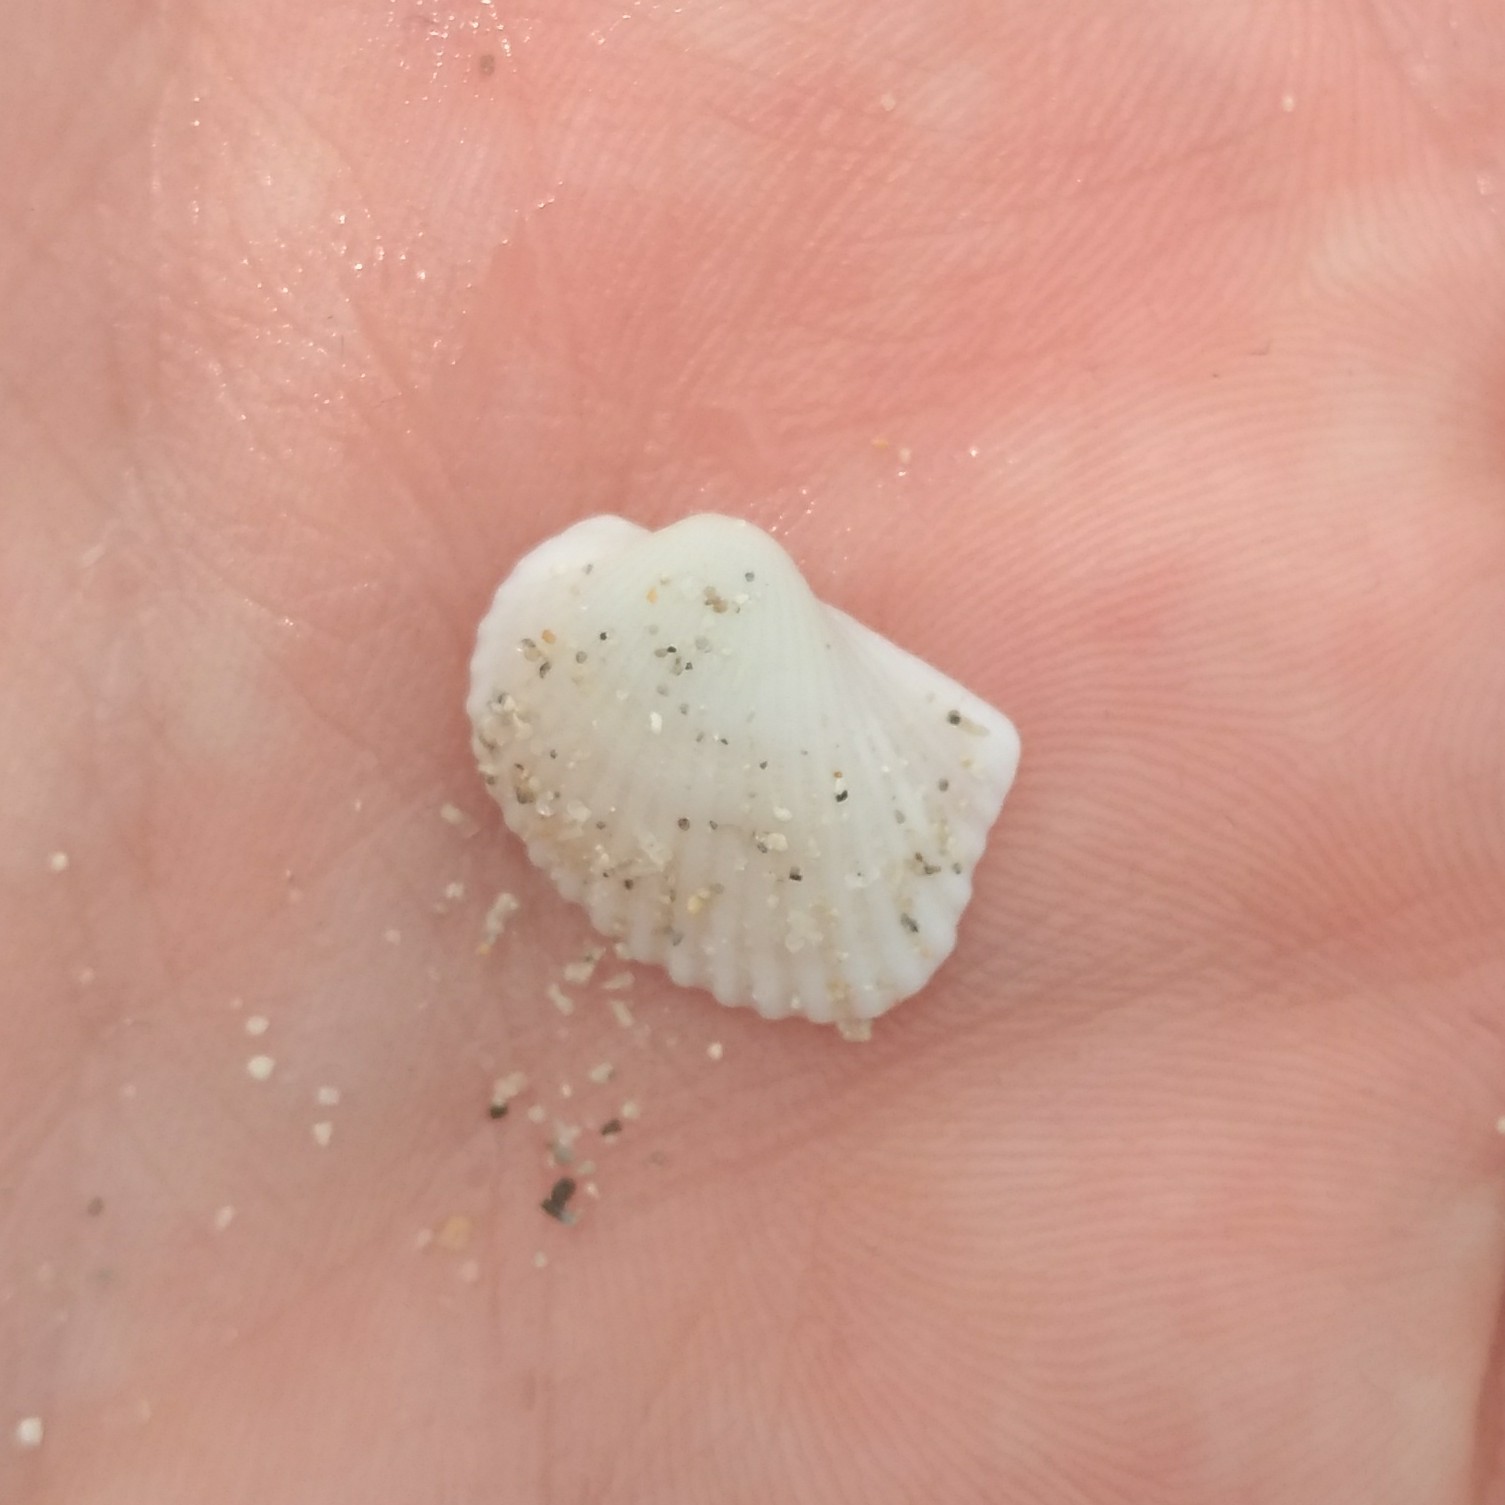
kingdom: Animalia
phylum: Mollusca
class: Bivalvia
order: Arcida
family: Arcidae
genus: Anadara
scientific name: Anadara notabilis
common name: Eared ark
